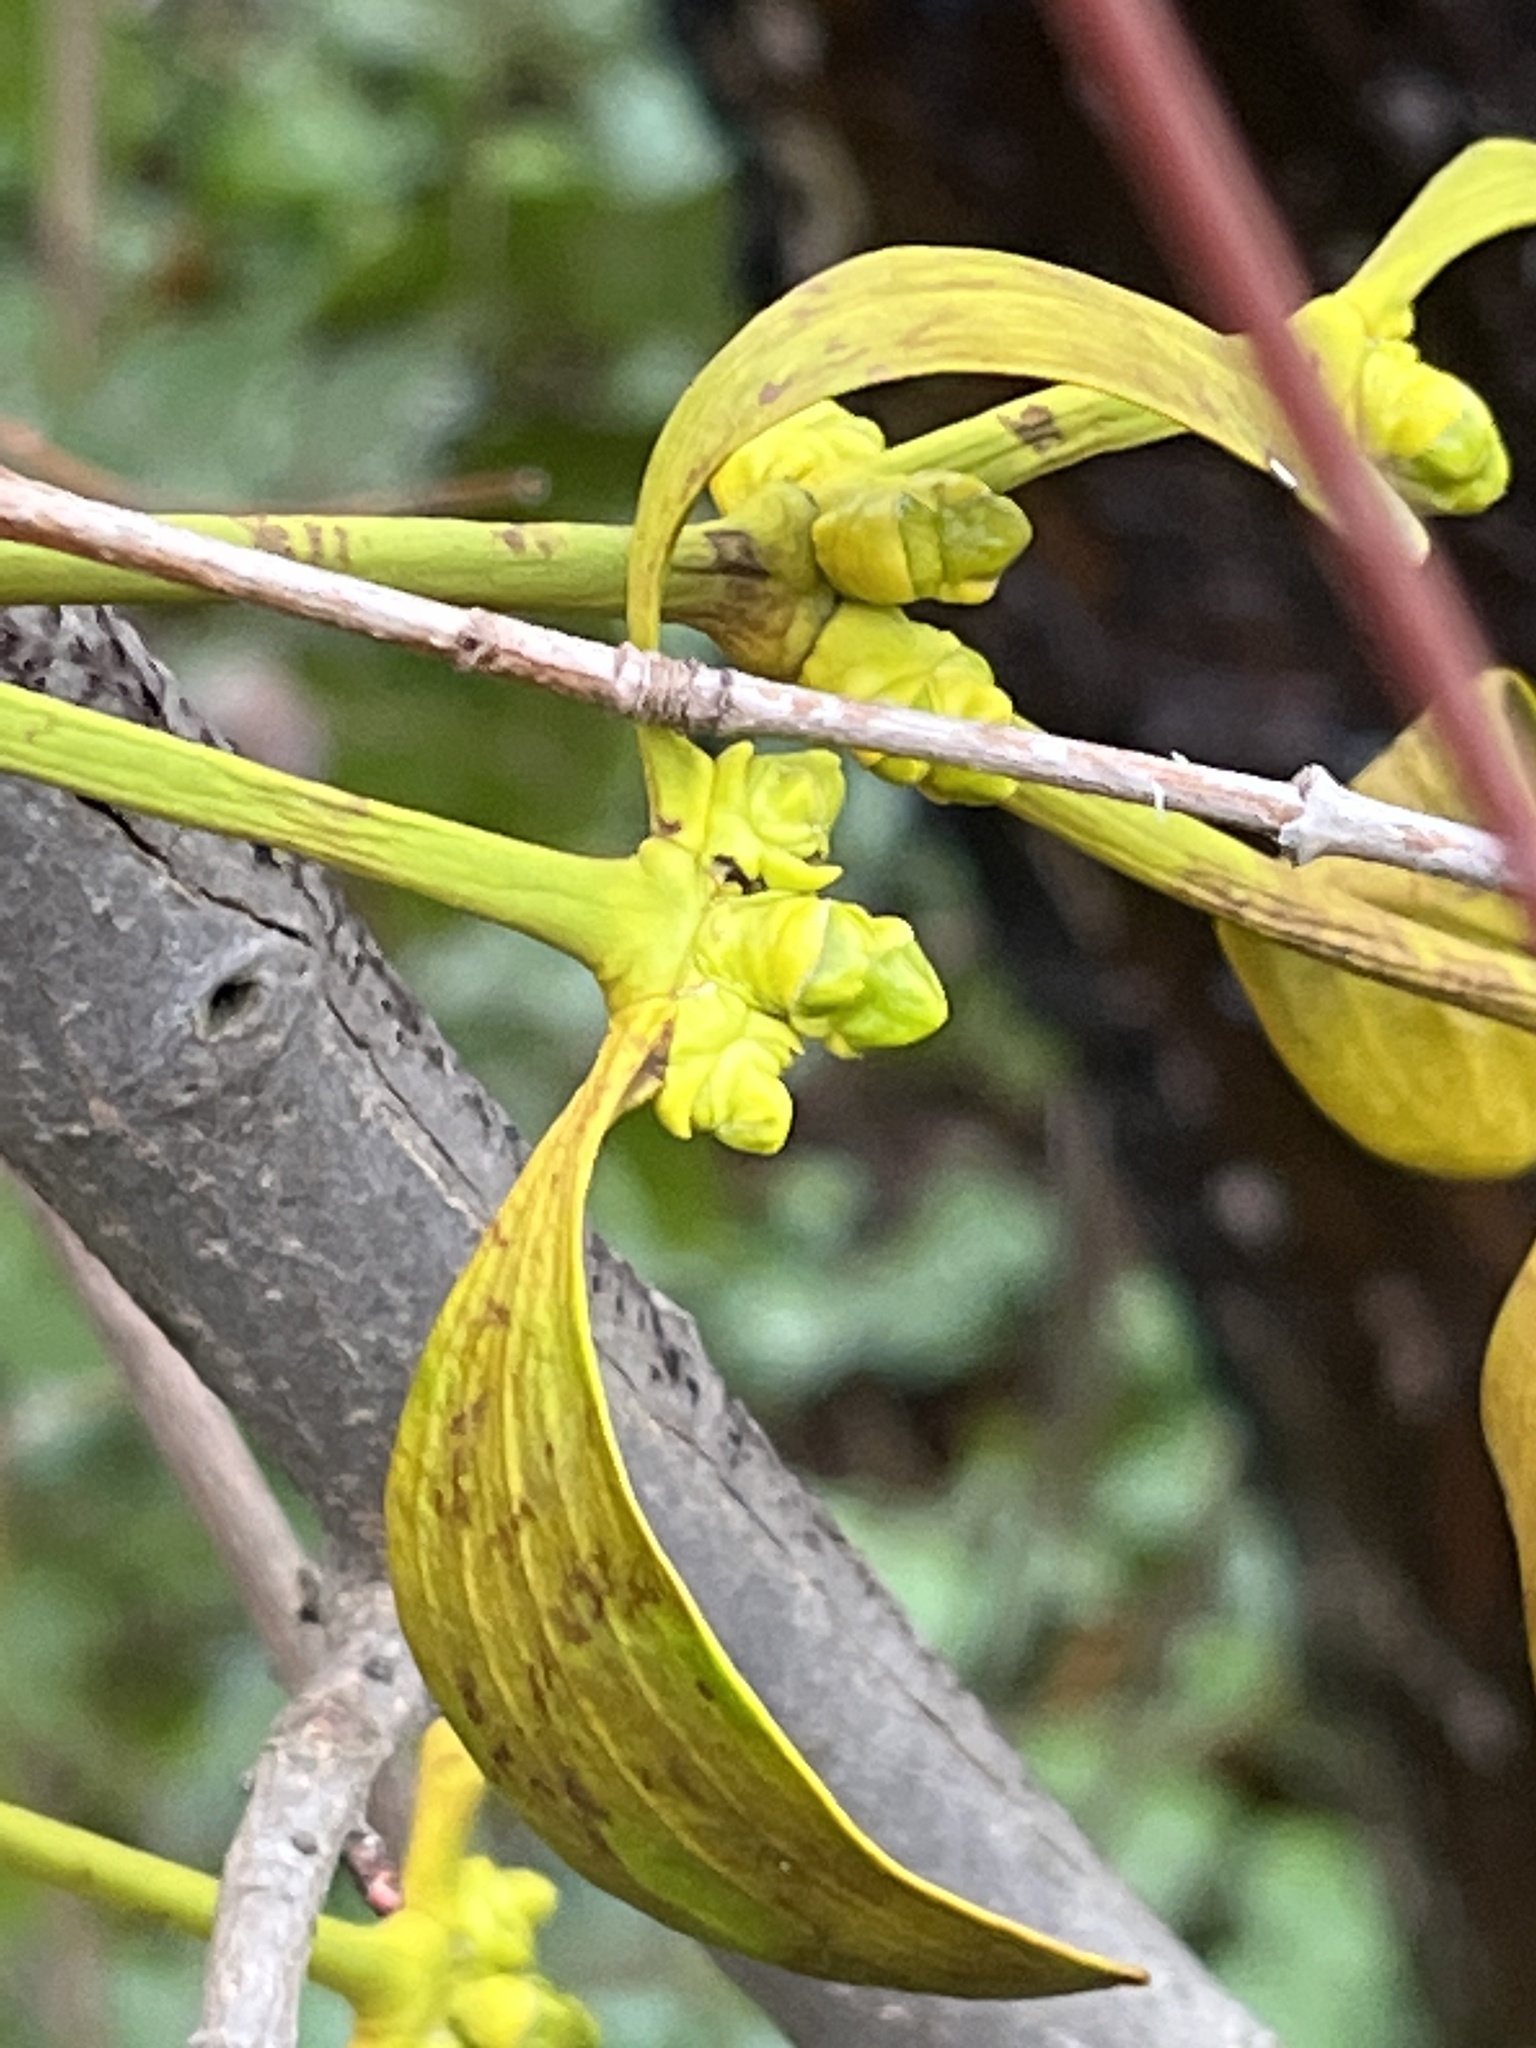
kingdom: Plantae
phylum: Tracheophyta
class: Magnoliopsida
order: Santalales
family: Viscaceae
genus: Viscum
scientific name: Viscum album
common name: Mistletoe
